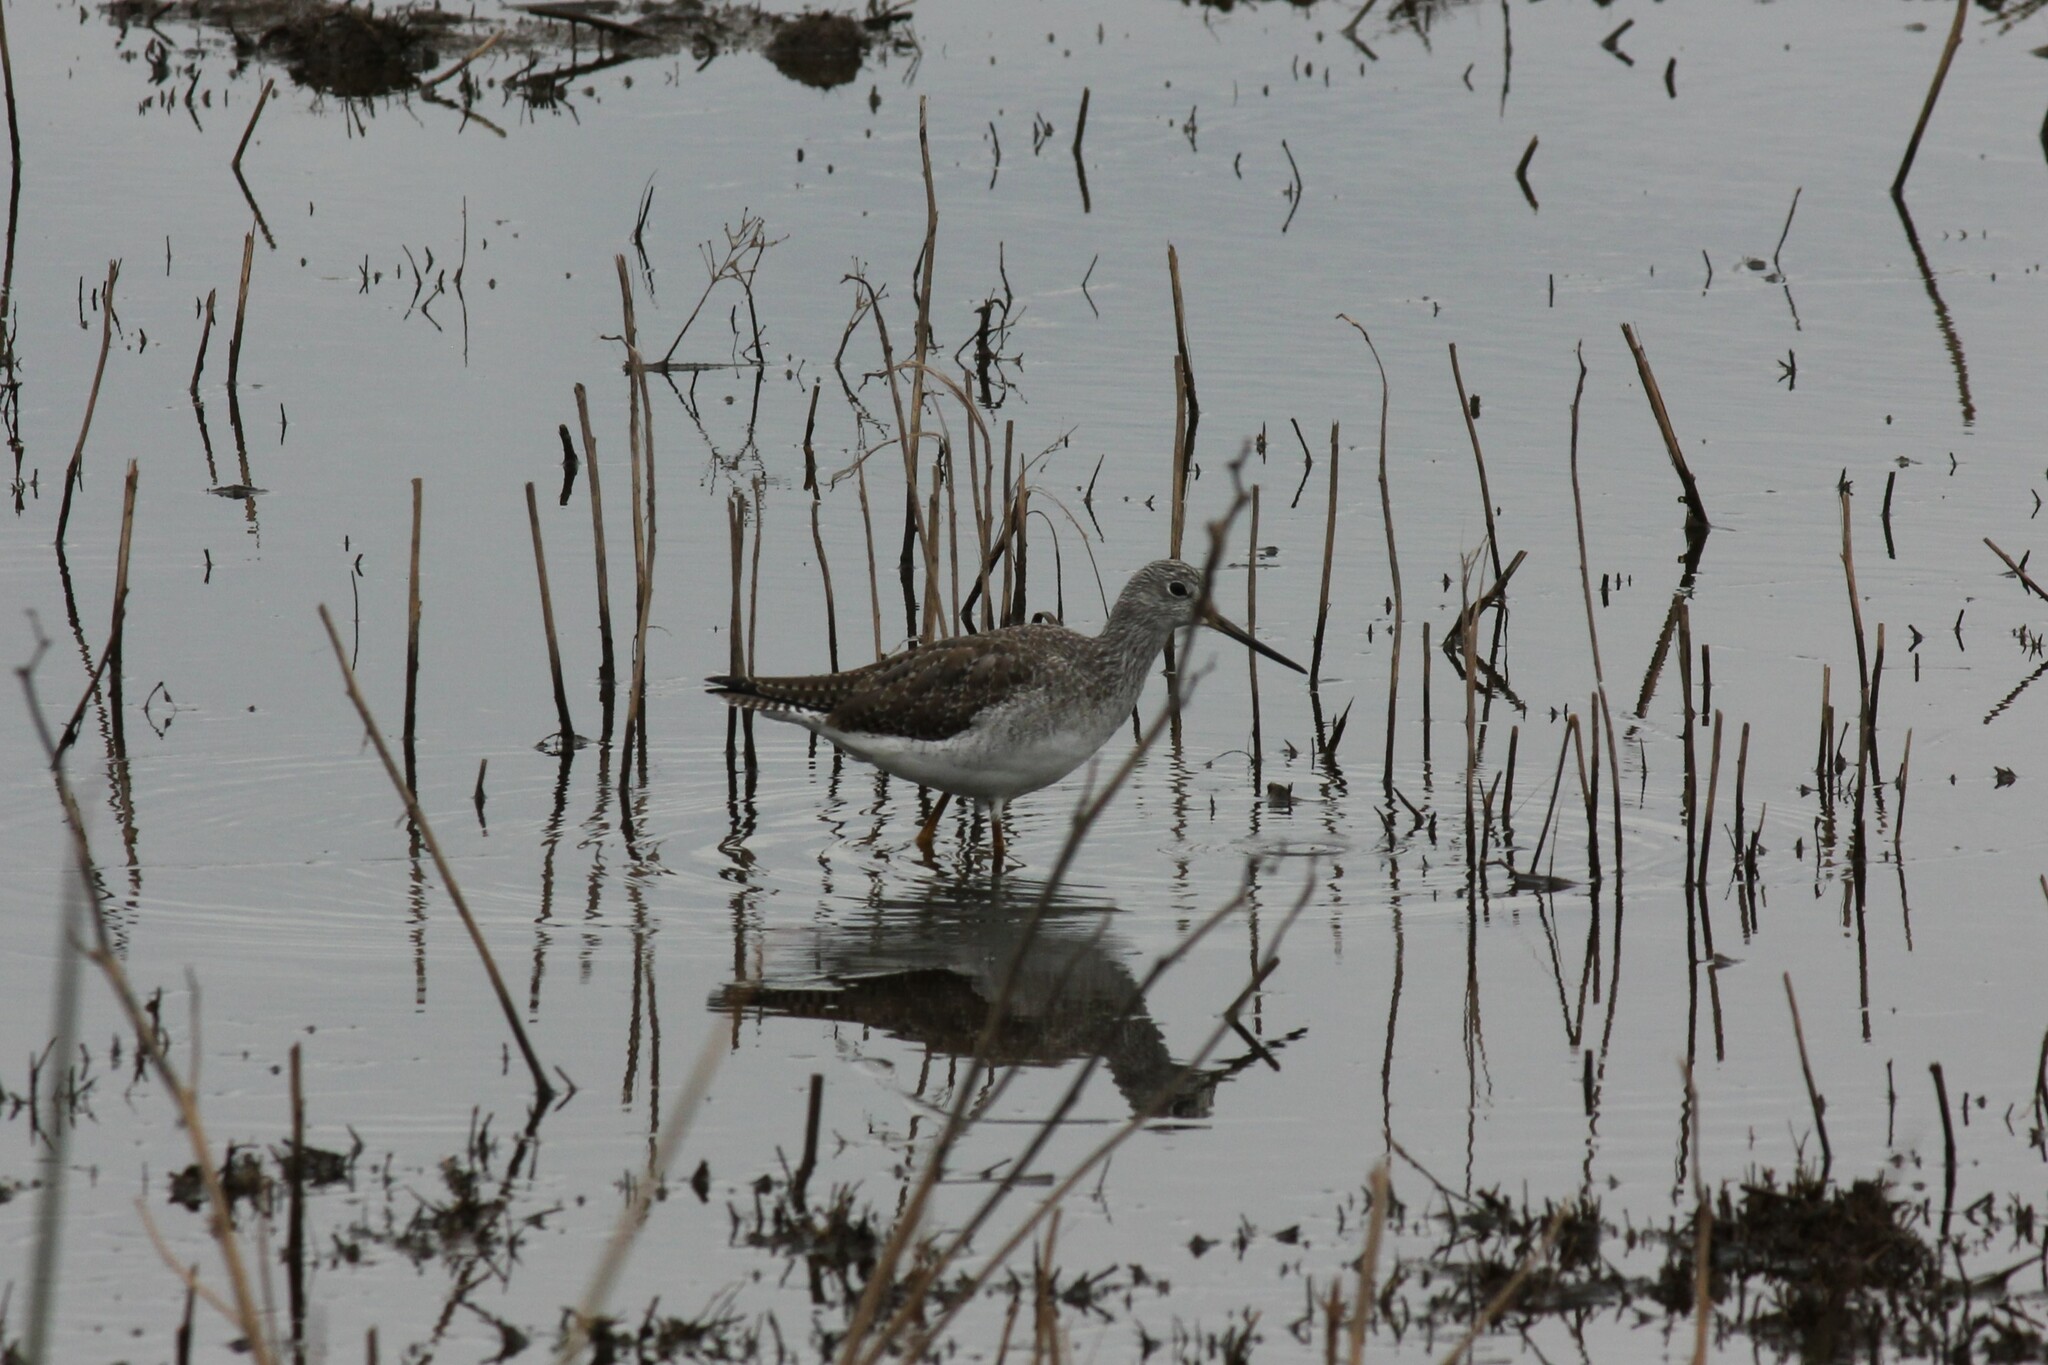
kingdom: Animalia
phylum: Chordata
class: Aves
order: Charadriiformes
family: Scolopacidae
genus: Tringa
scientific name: Tringa melanoleuca
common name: Greater yellowlegs
